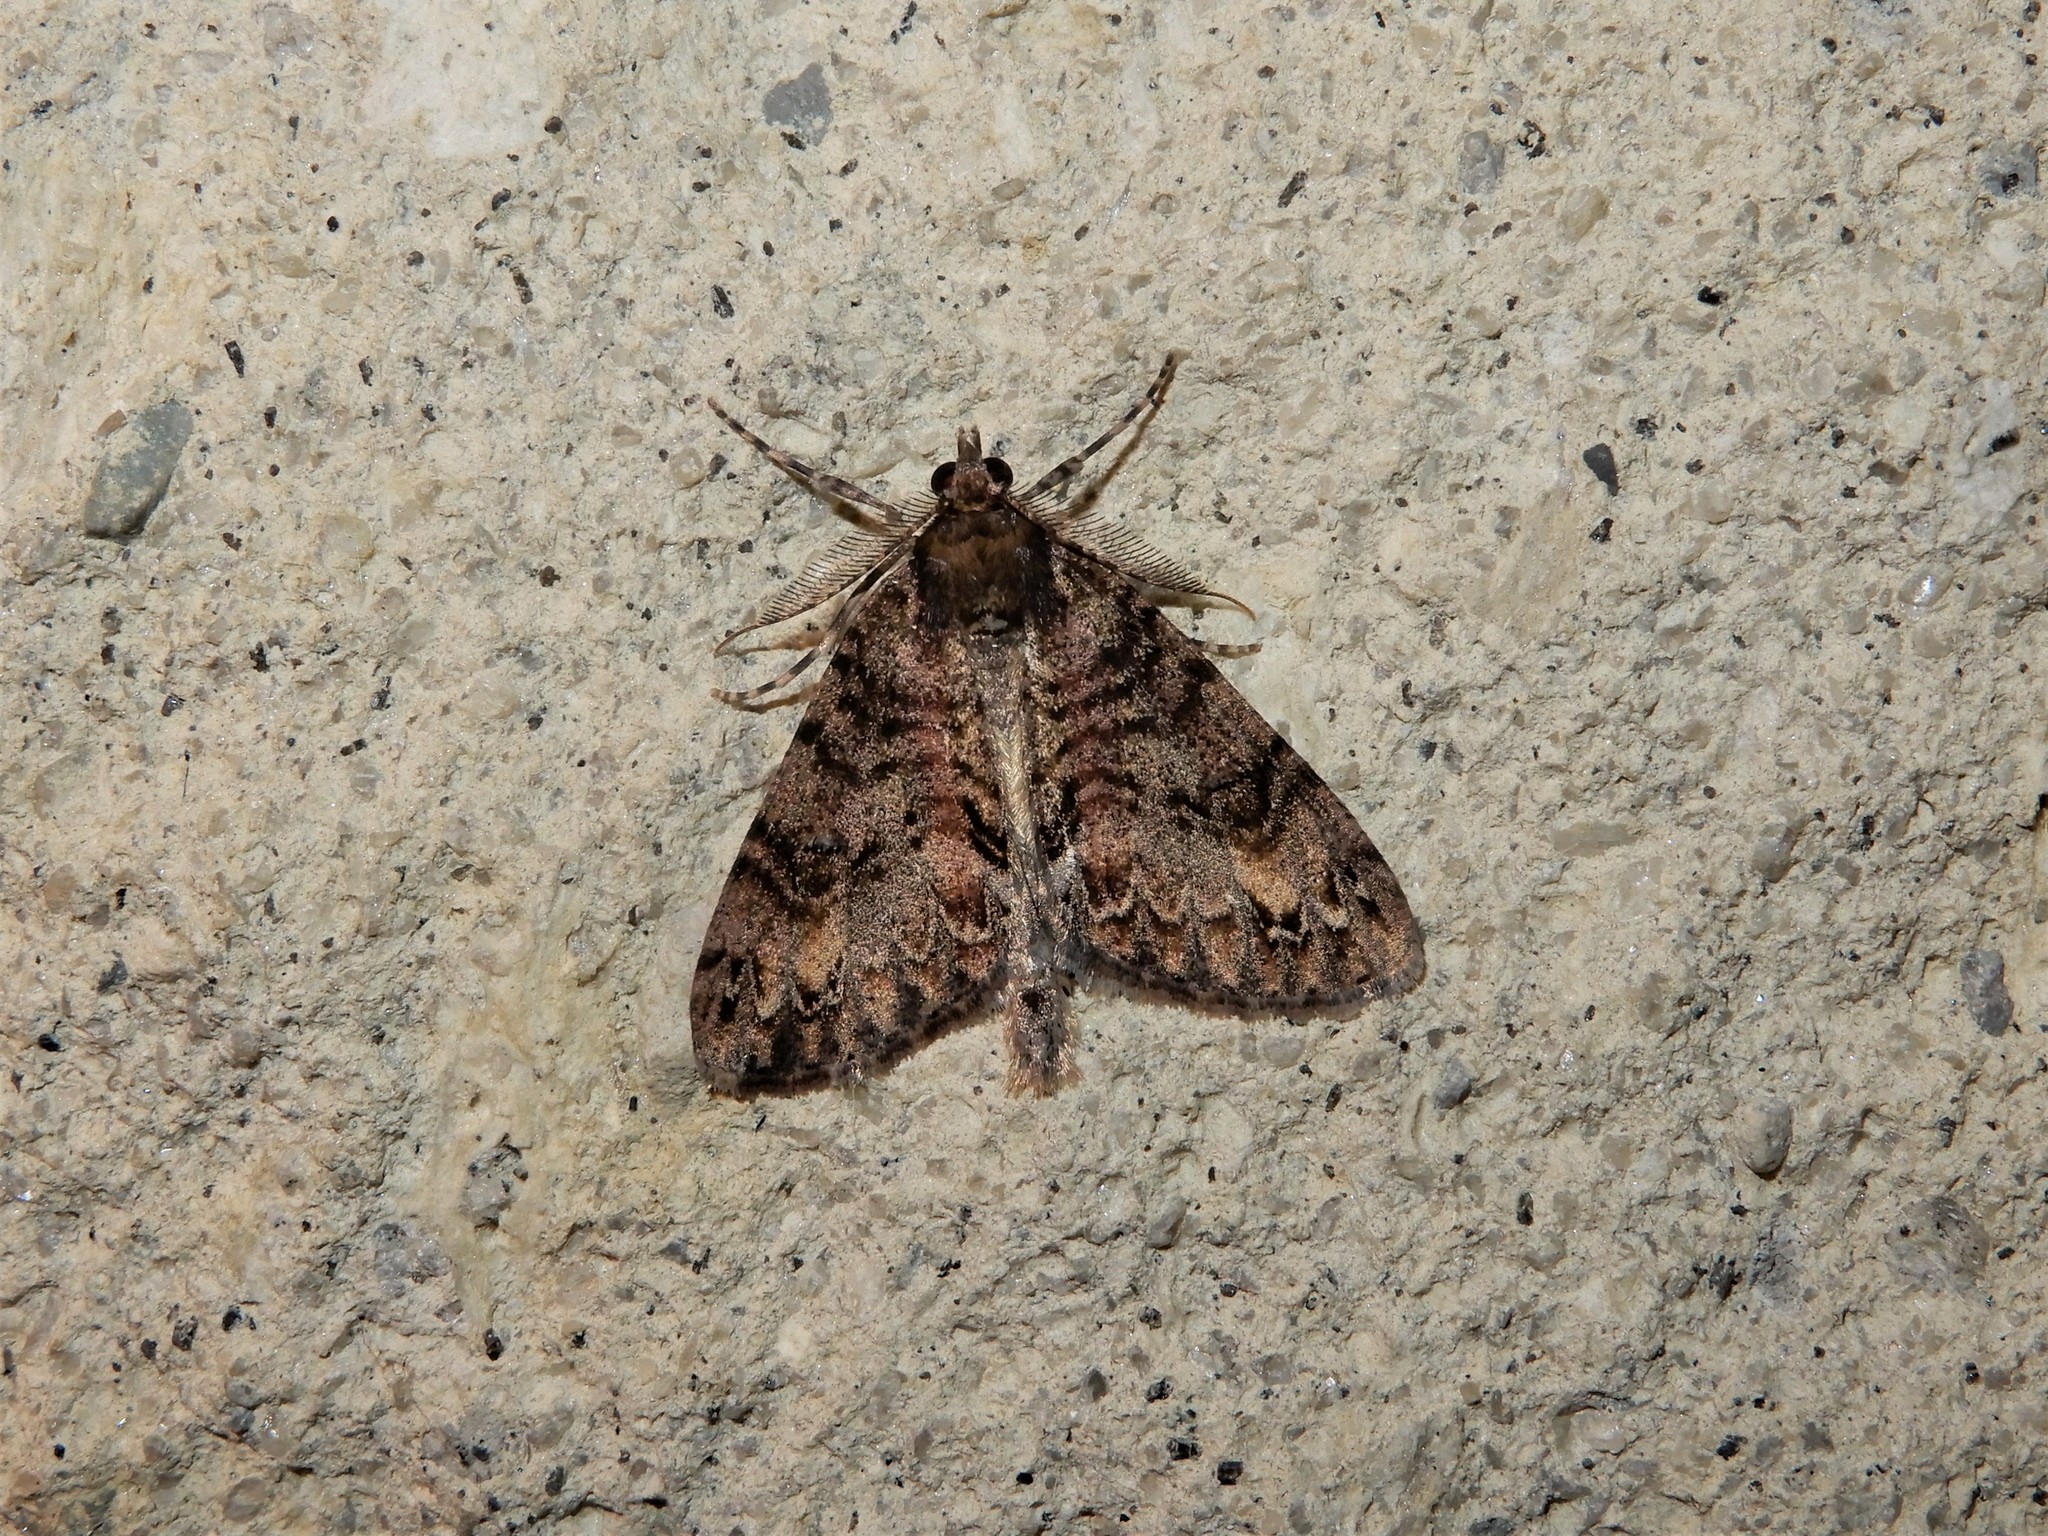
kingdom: Animalia
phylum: Arthropoda
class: Insecta
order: Lepidoptera
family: Geometridae
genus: Pseudocoremia
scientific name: Pseudocoremia suavis
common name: Common forest looper
